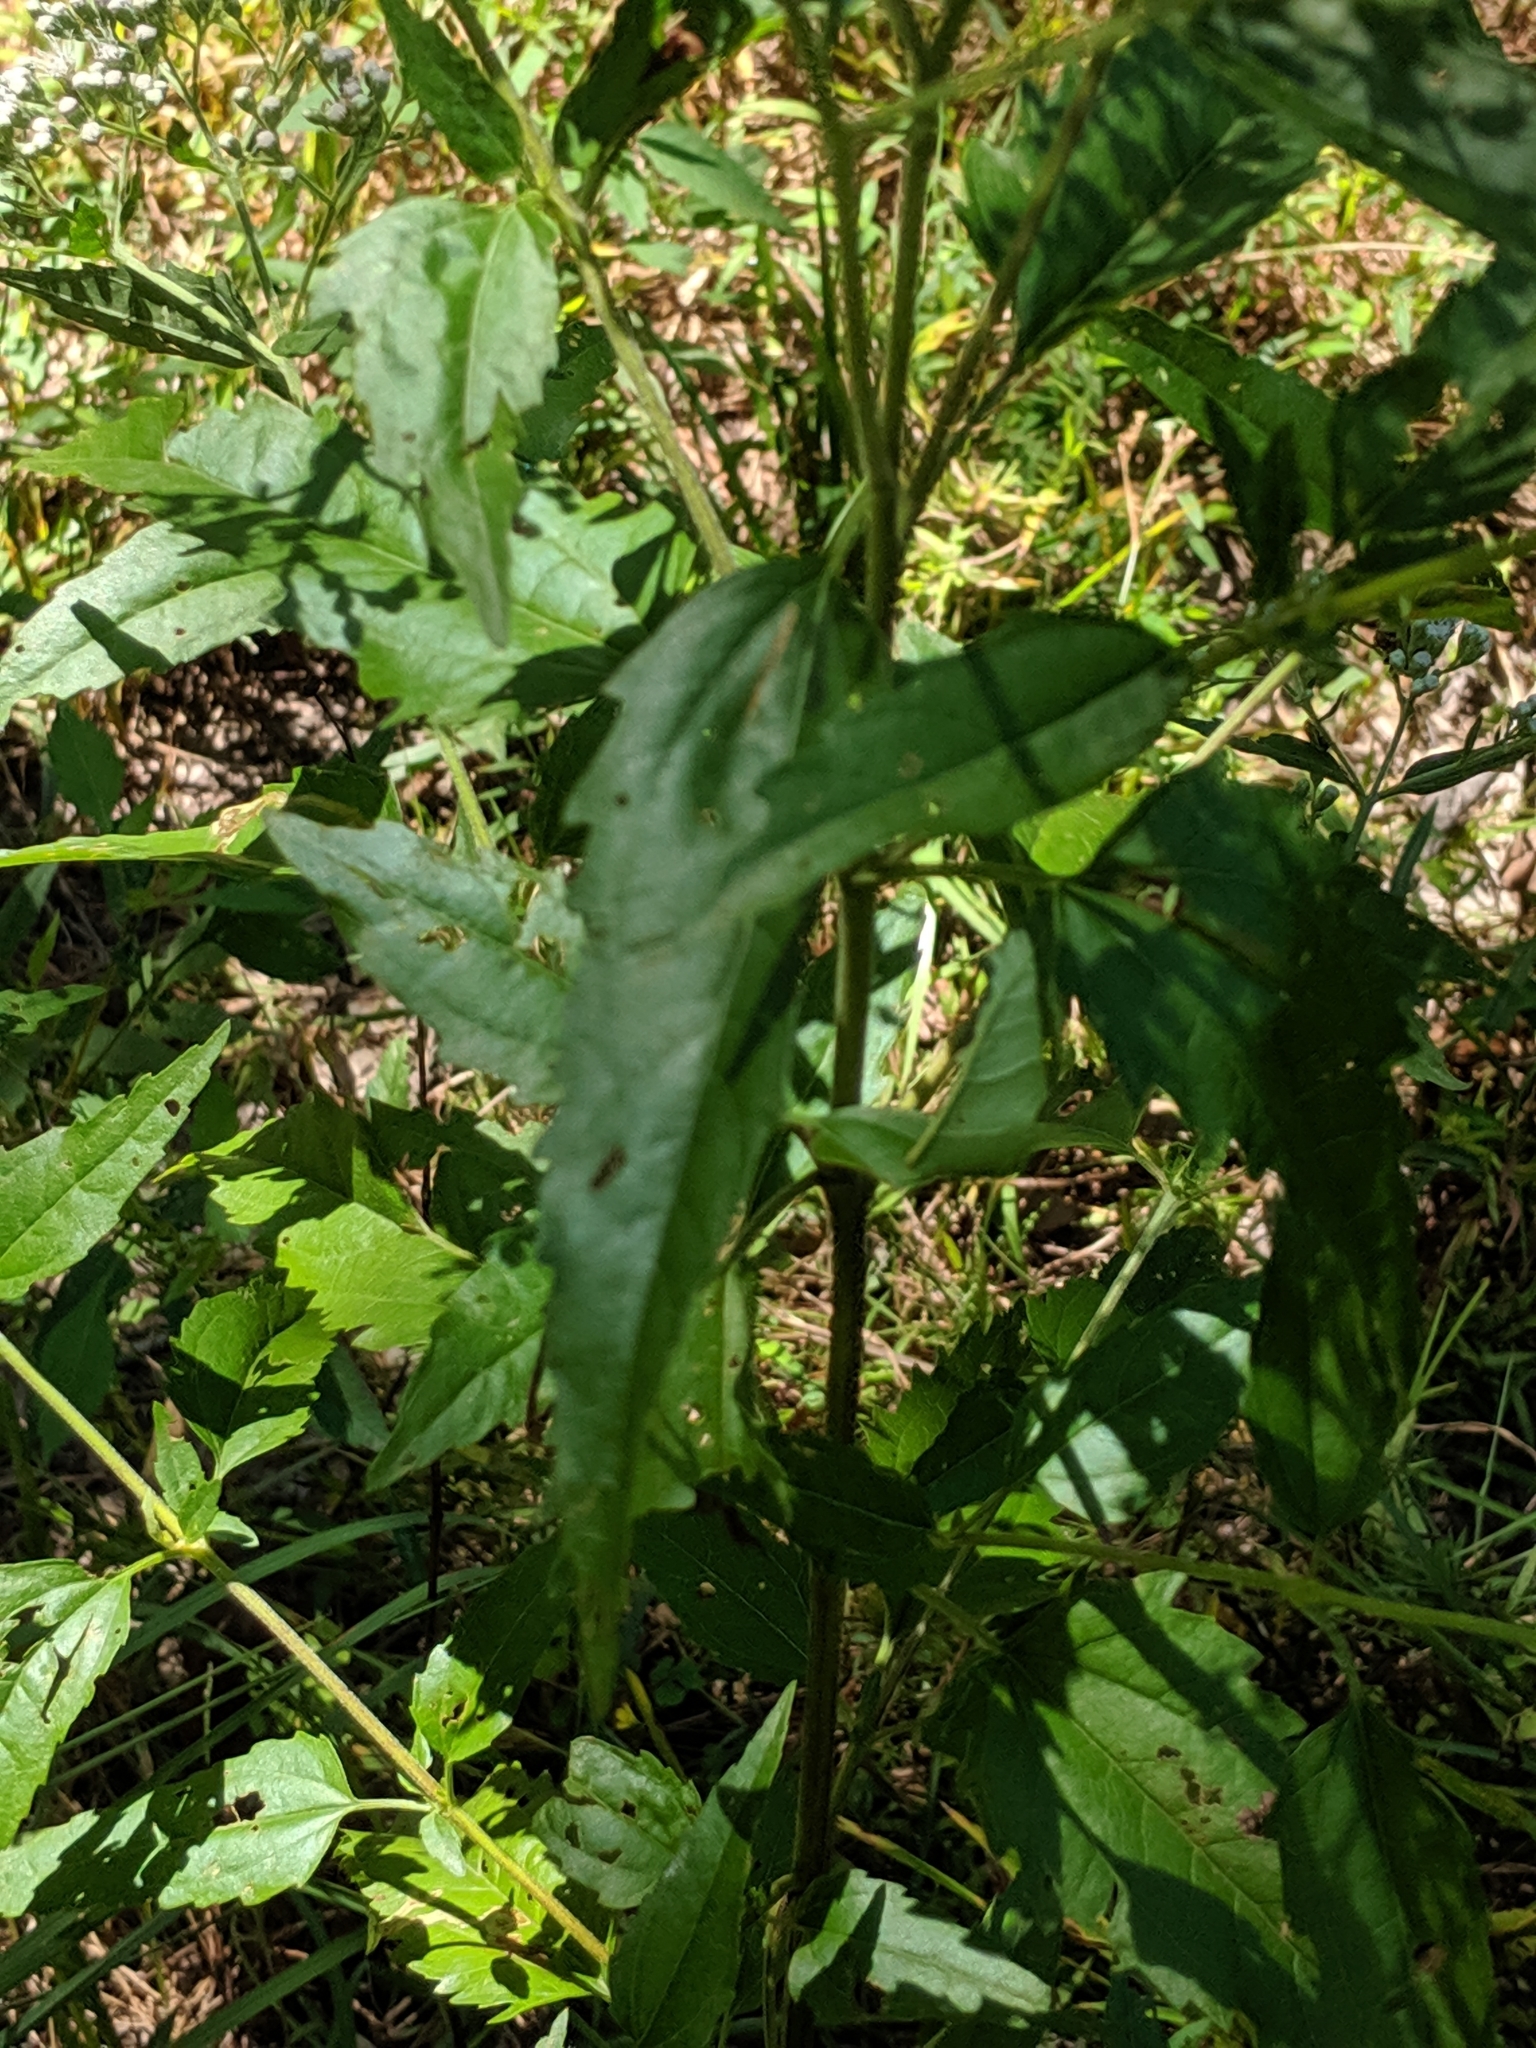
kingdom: Plantae
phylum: Tracheophyta
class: Magnoliopsida
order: Asterales
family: Asteraceae
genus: Eupatorium
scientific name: Eupatorium serotinum
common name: Late boneset
